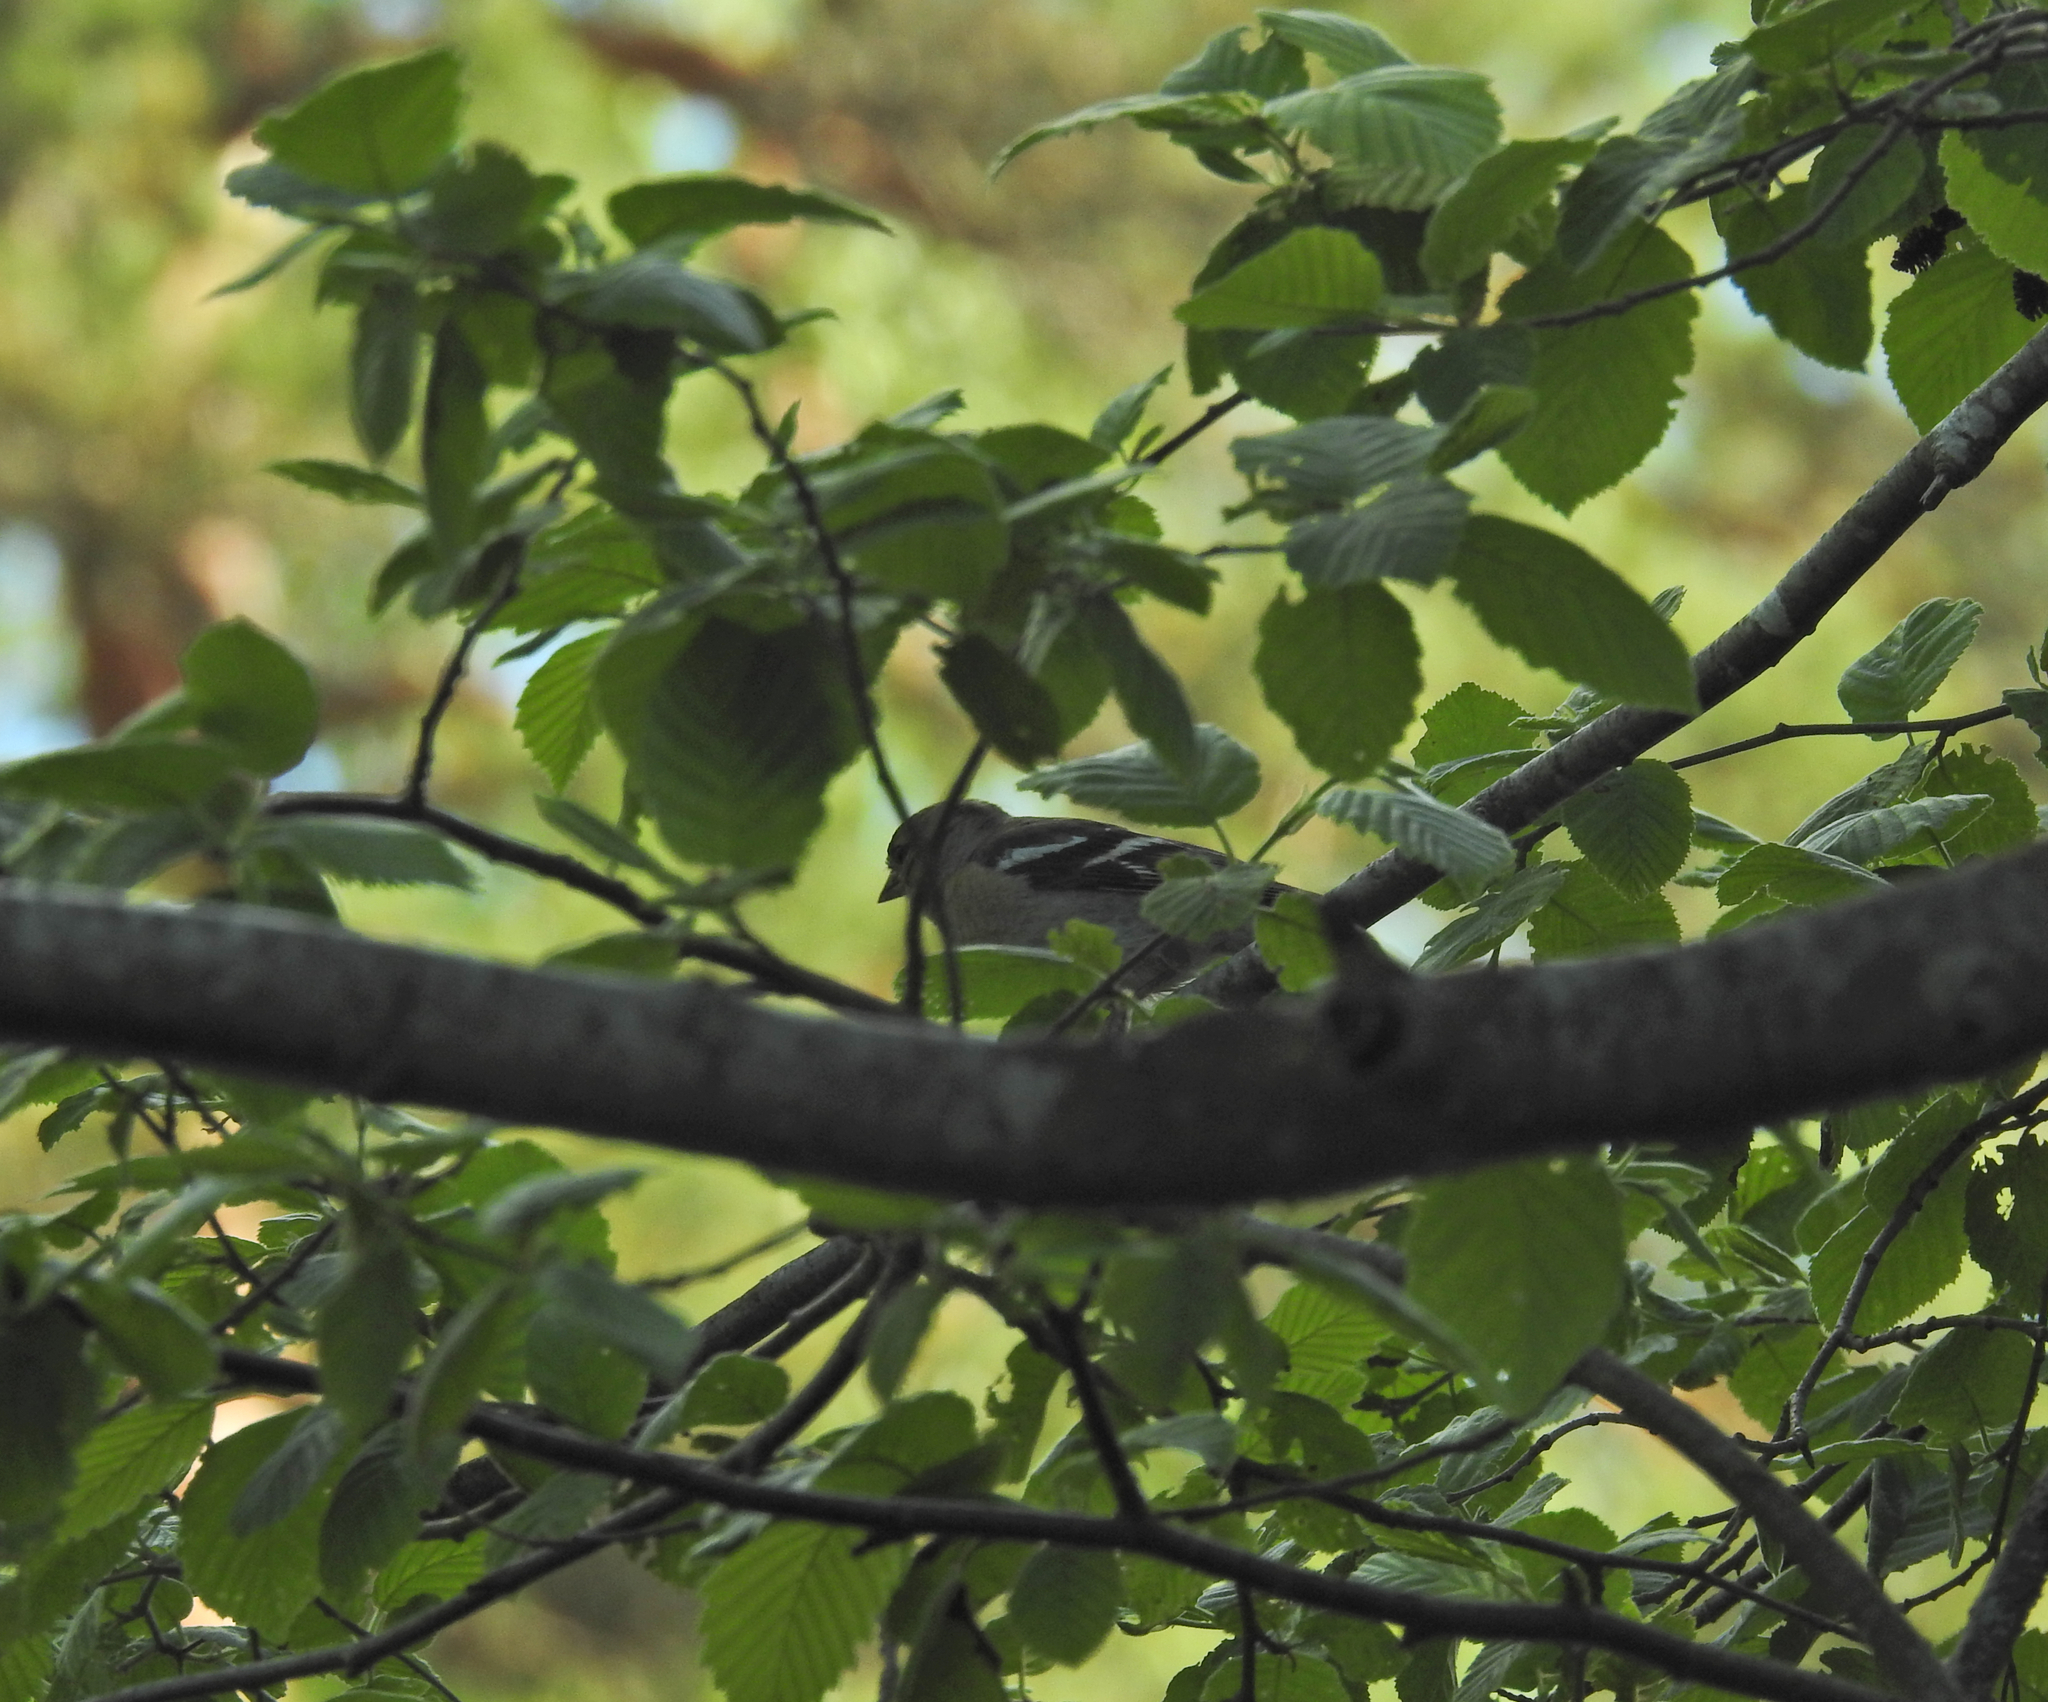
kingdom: Animalia
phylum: Chordata
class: Aves
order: Passeriformes
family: Fringillidae
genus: Fringilla
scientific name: Fringilla coelebs
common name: Common chaffinch
